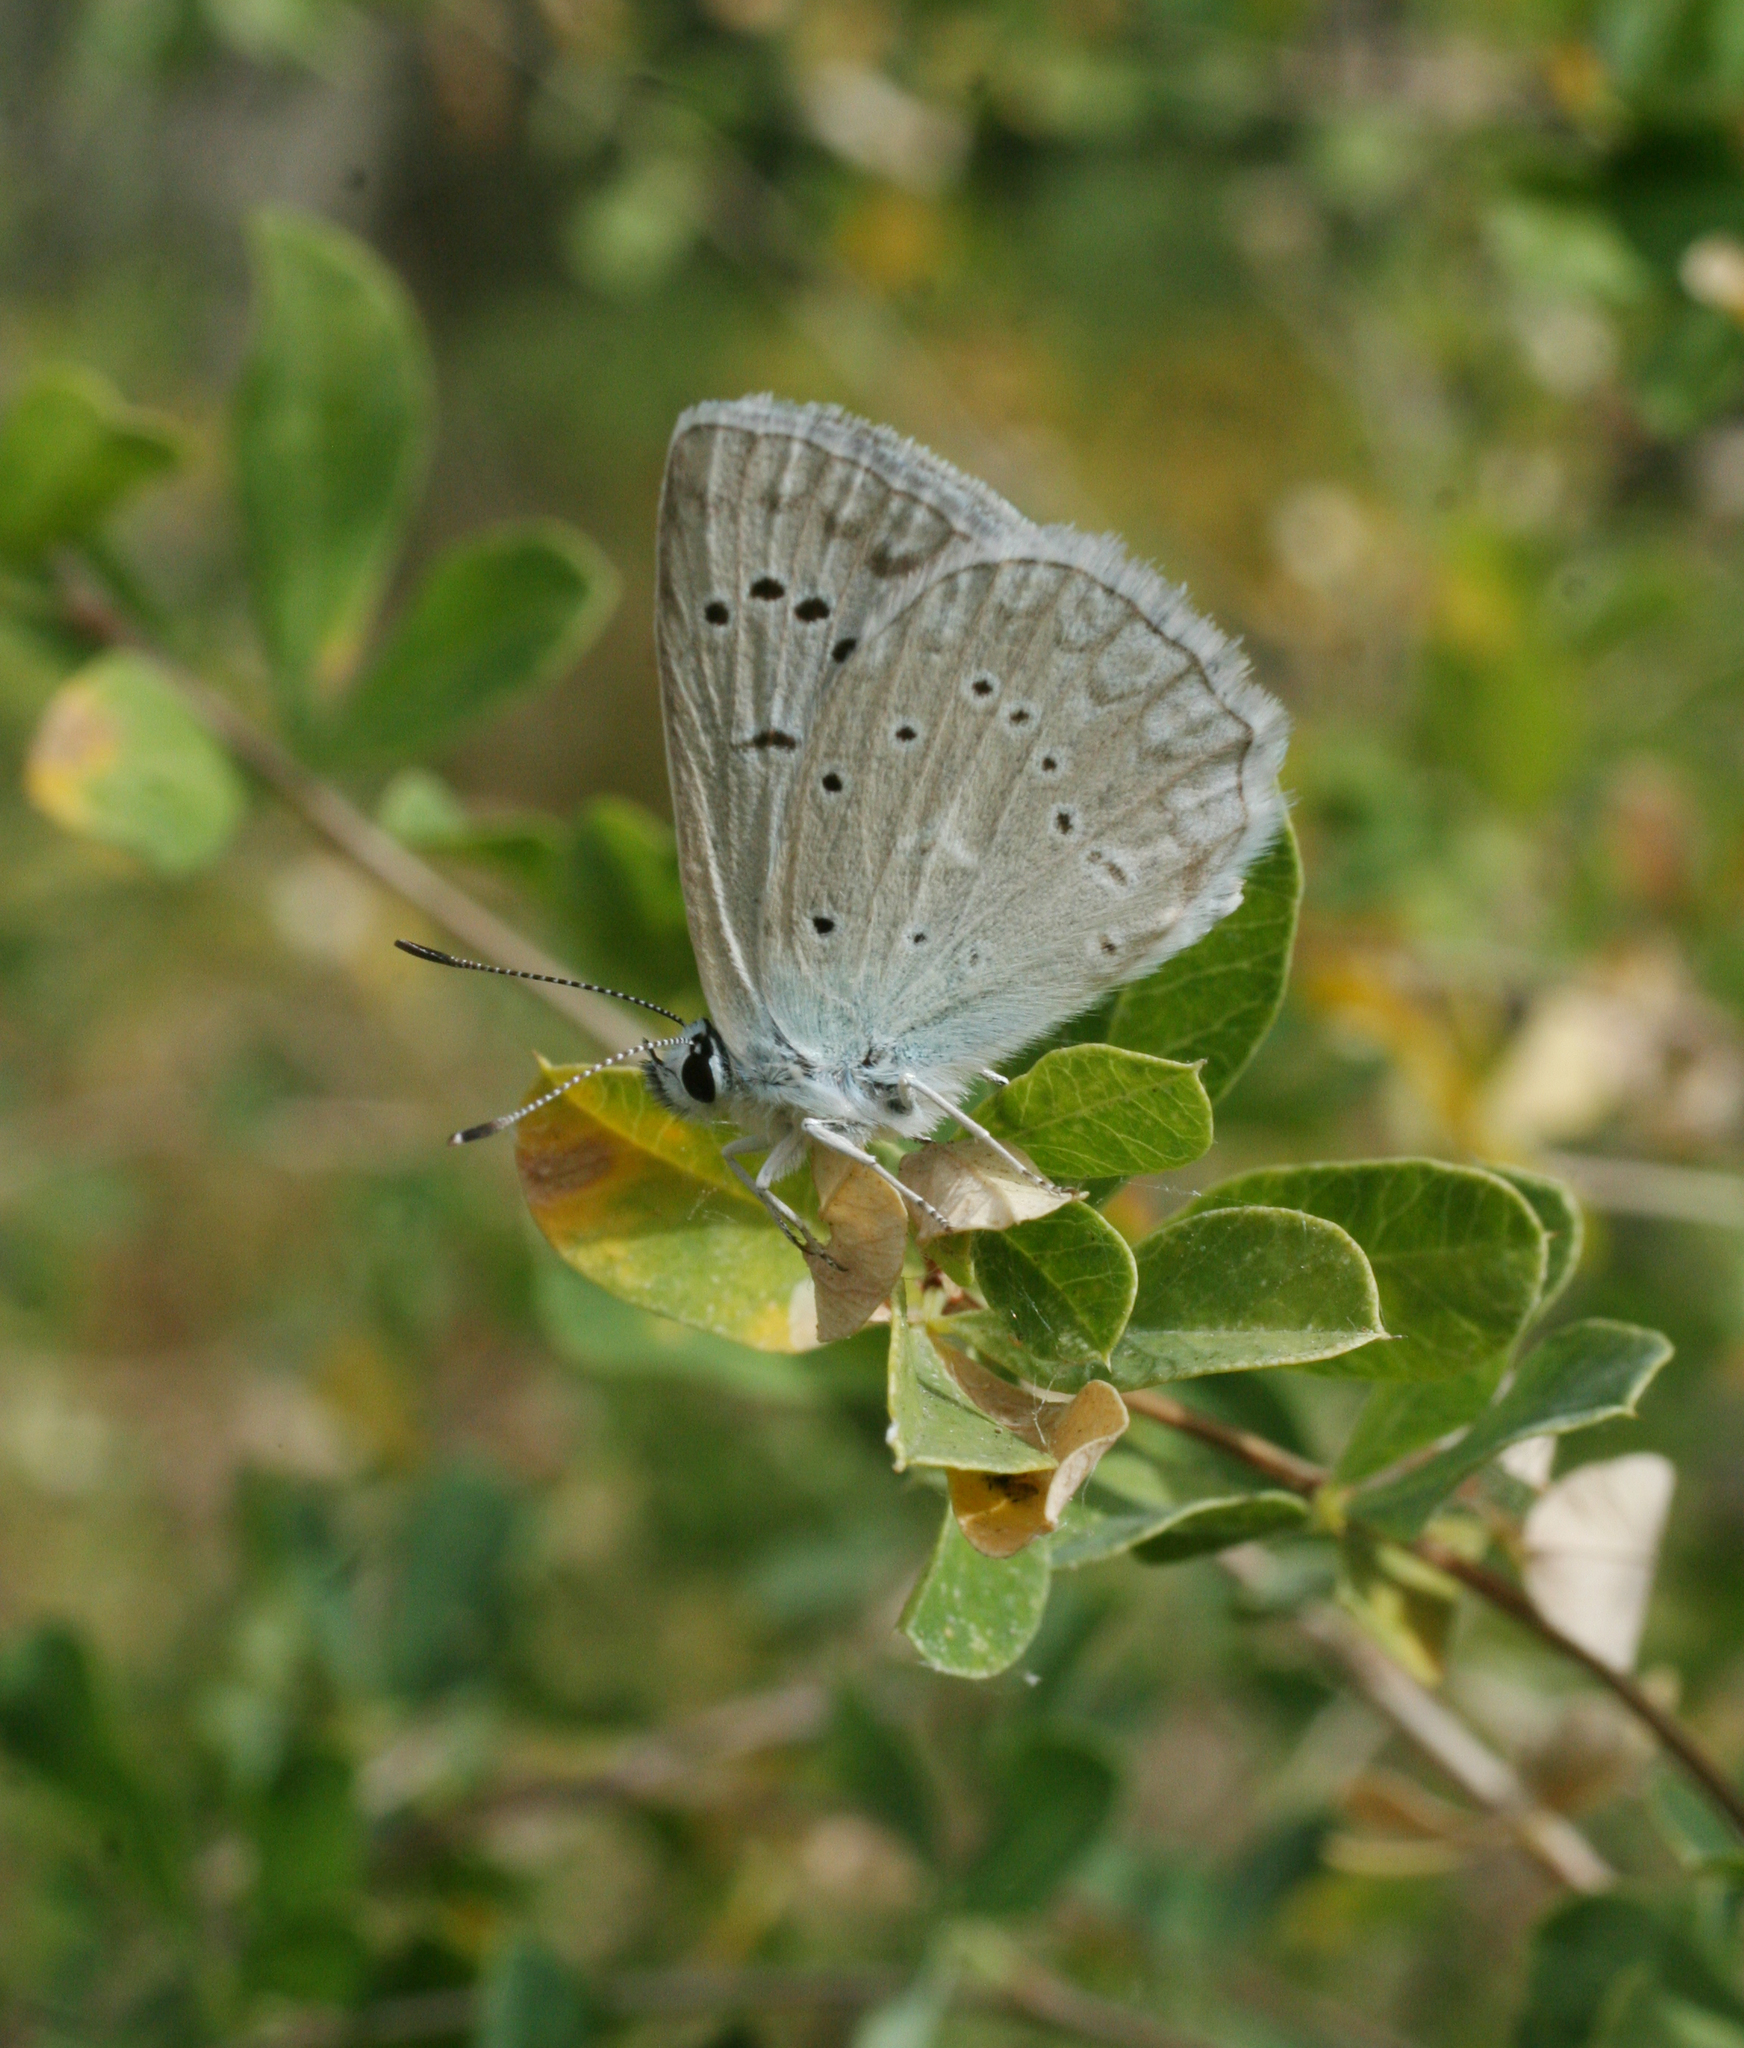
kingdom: Animalia
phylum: Arthropoda
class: Insecta
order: Lepidoptera
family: Lycaenidae
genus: Polyommatus
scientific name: Polyommatus daphnis
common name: Meleager's blue
